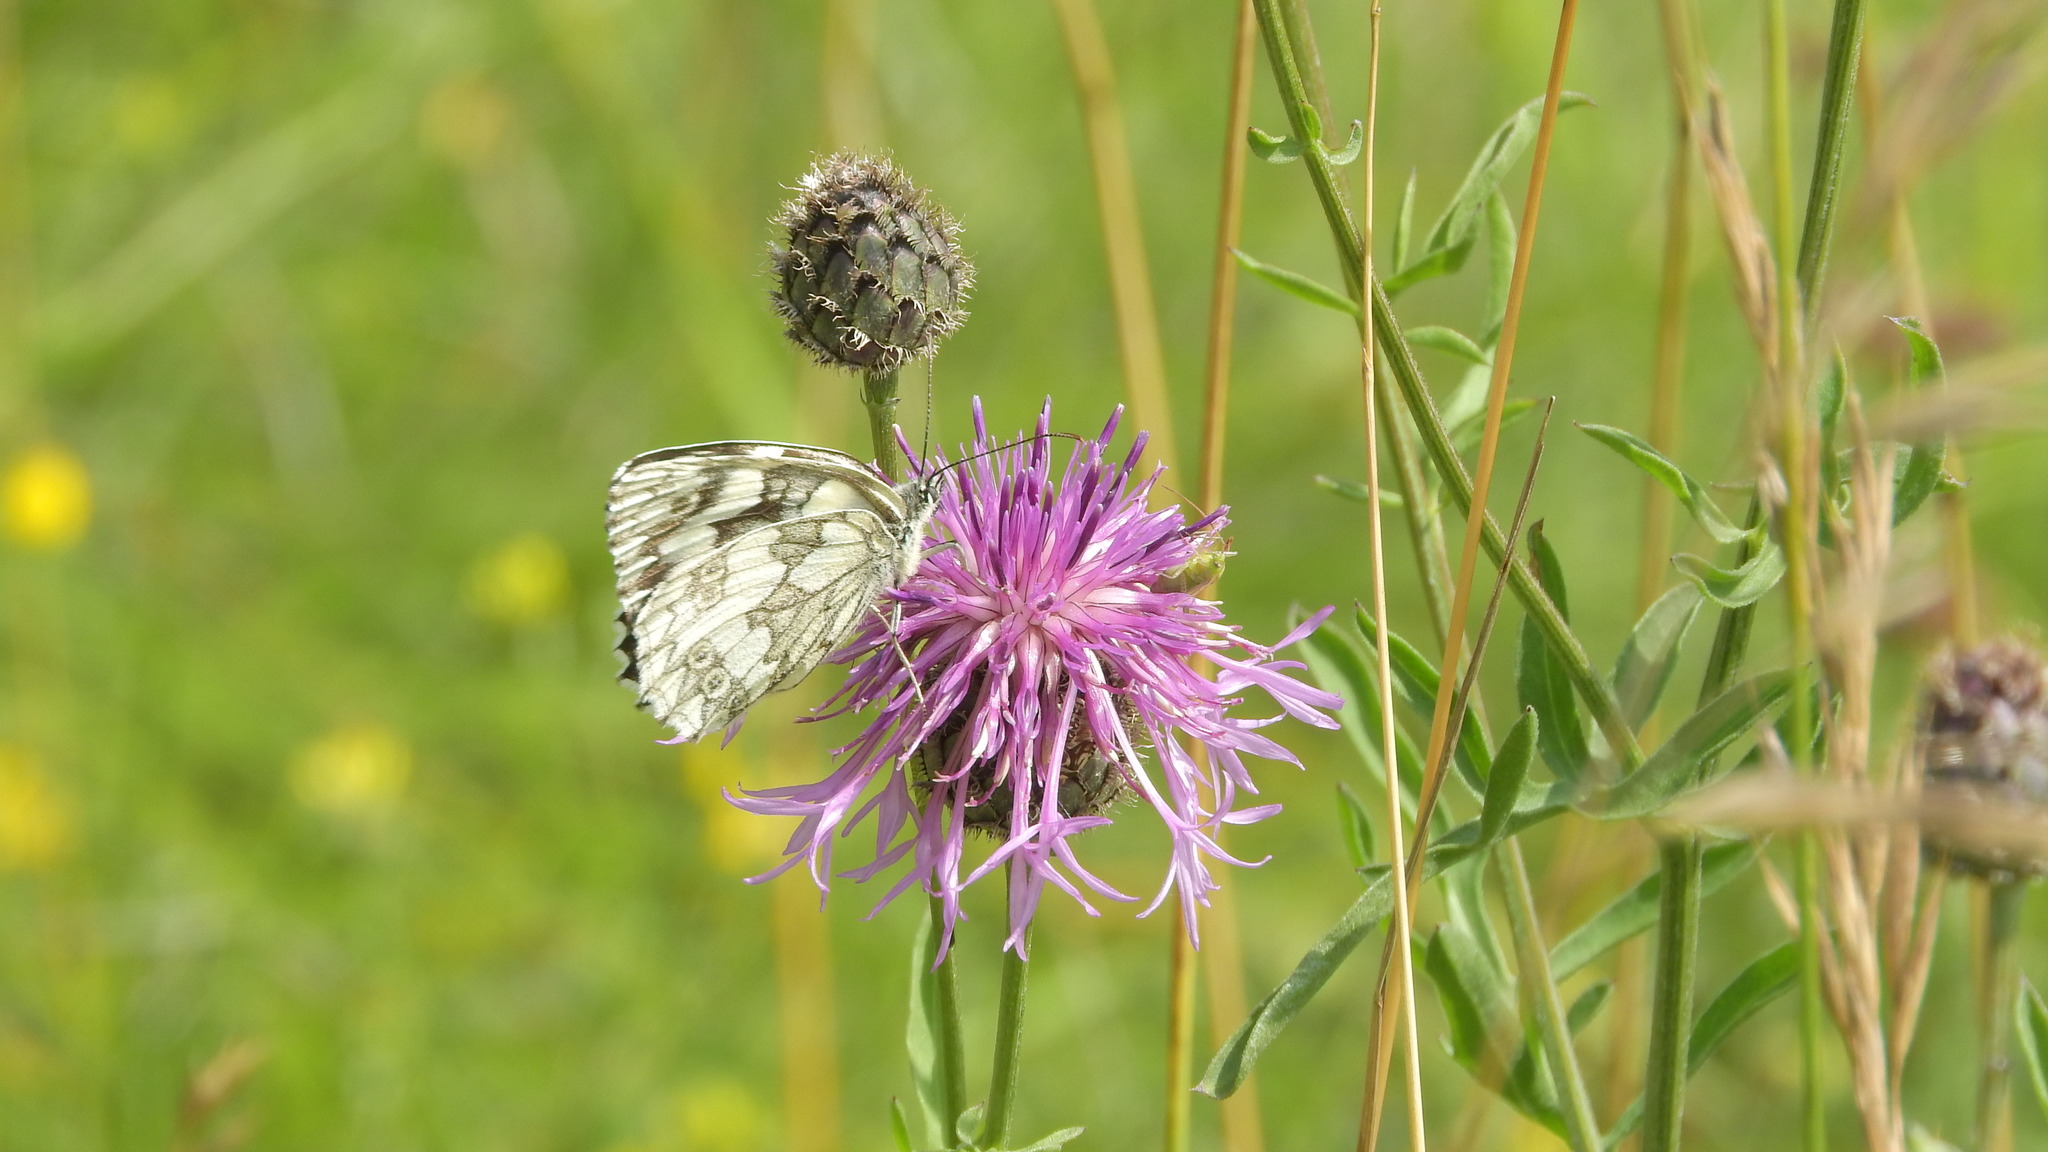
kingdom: Animalia
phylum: Arthropoda
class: Insecta
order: Lepidoptera
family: Nymphalidae
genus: Melanargia
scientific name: Melanargia galathea
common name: Marbled white
